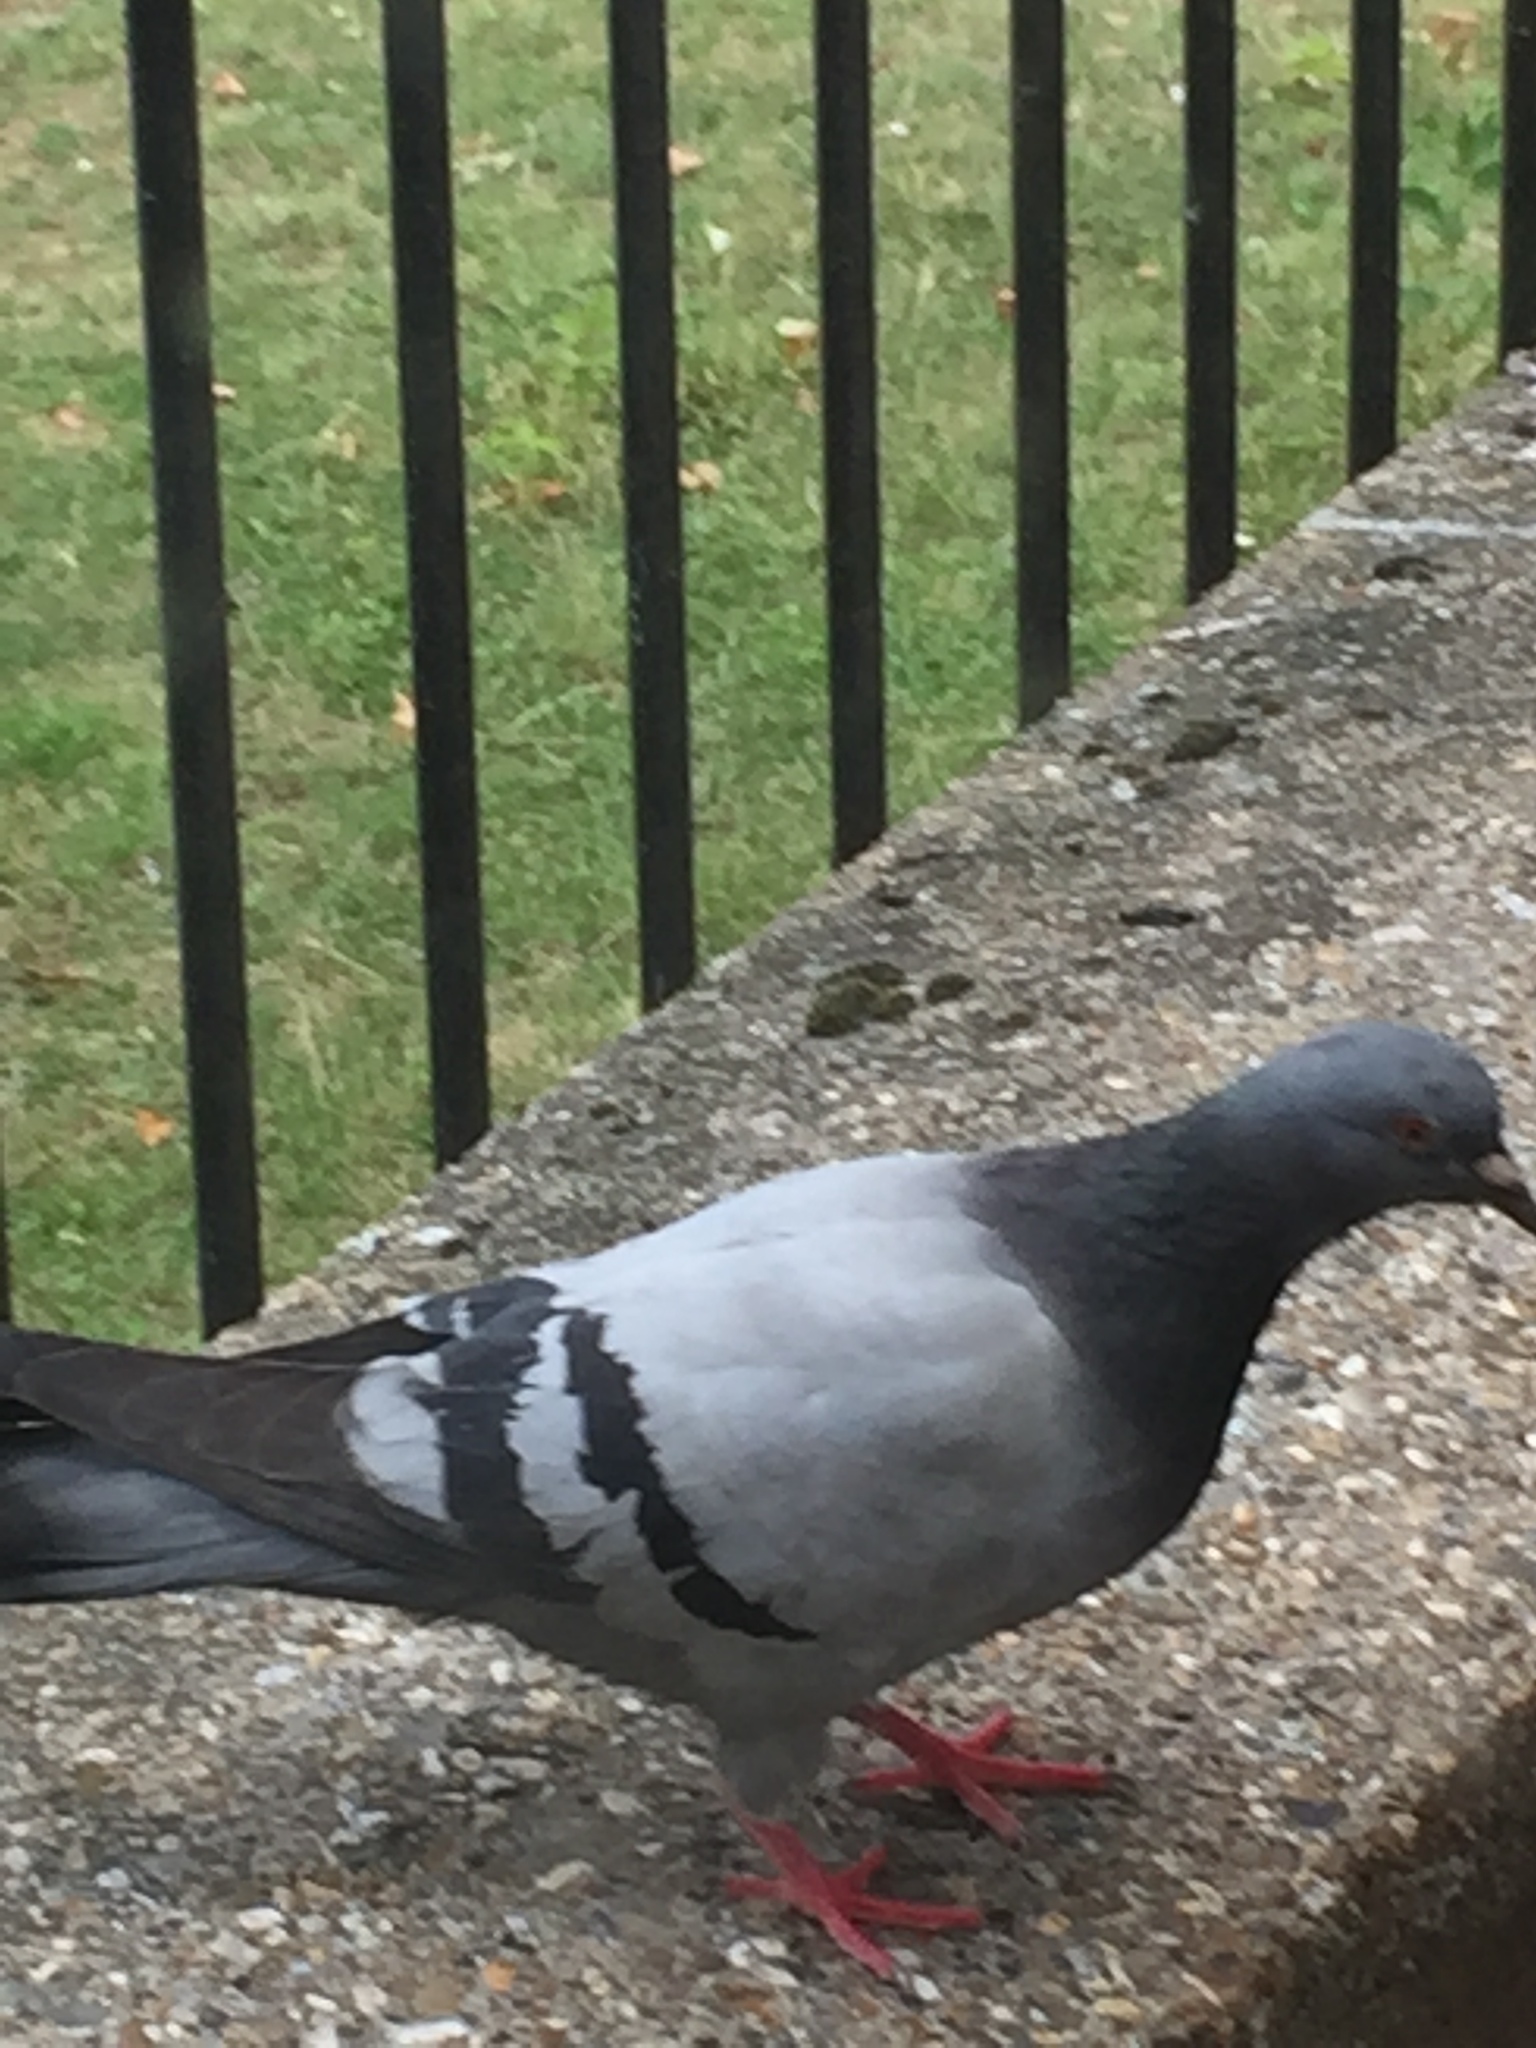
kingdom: Animalia
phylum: Chordata
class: Aves
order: Columbiformes
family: Columbidae
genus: Columba
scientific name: Columba livia
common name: Rock pigeon
